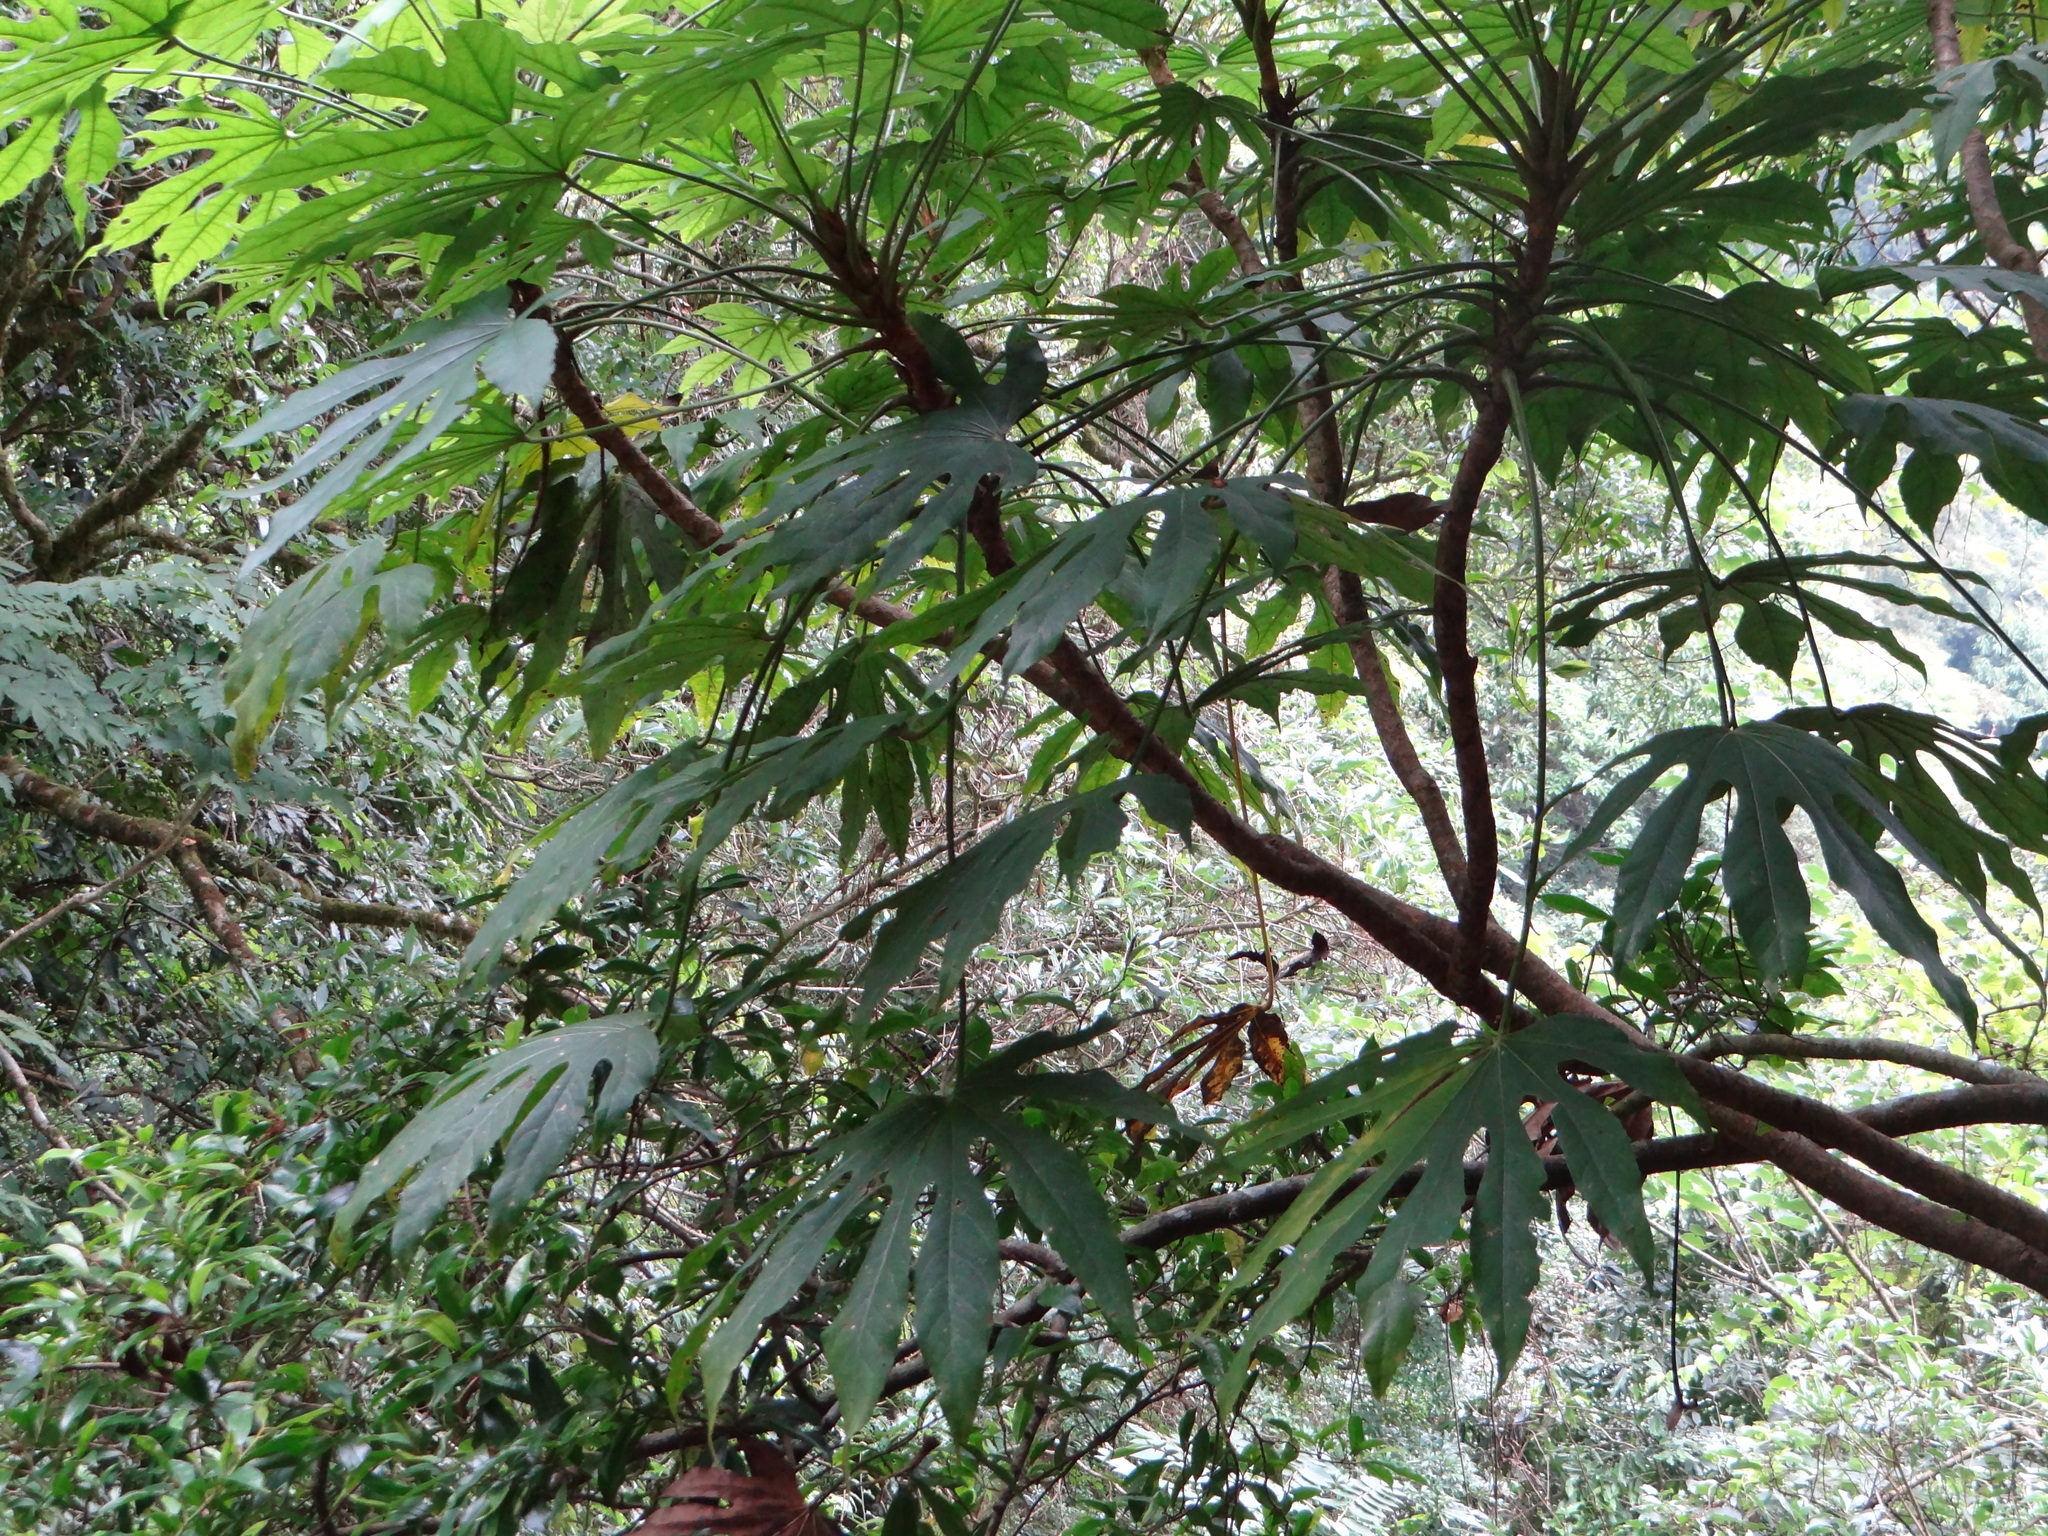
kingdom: Plantae
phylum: Tracheophyta
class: Magnoliopsida
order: Apiales
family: Araliaceae
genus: Fatsia
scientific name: Fatsia polycarpa
